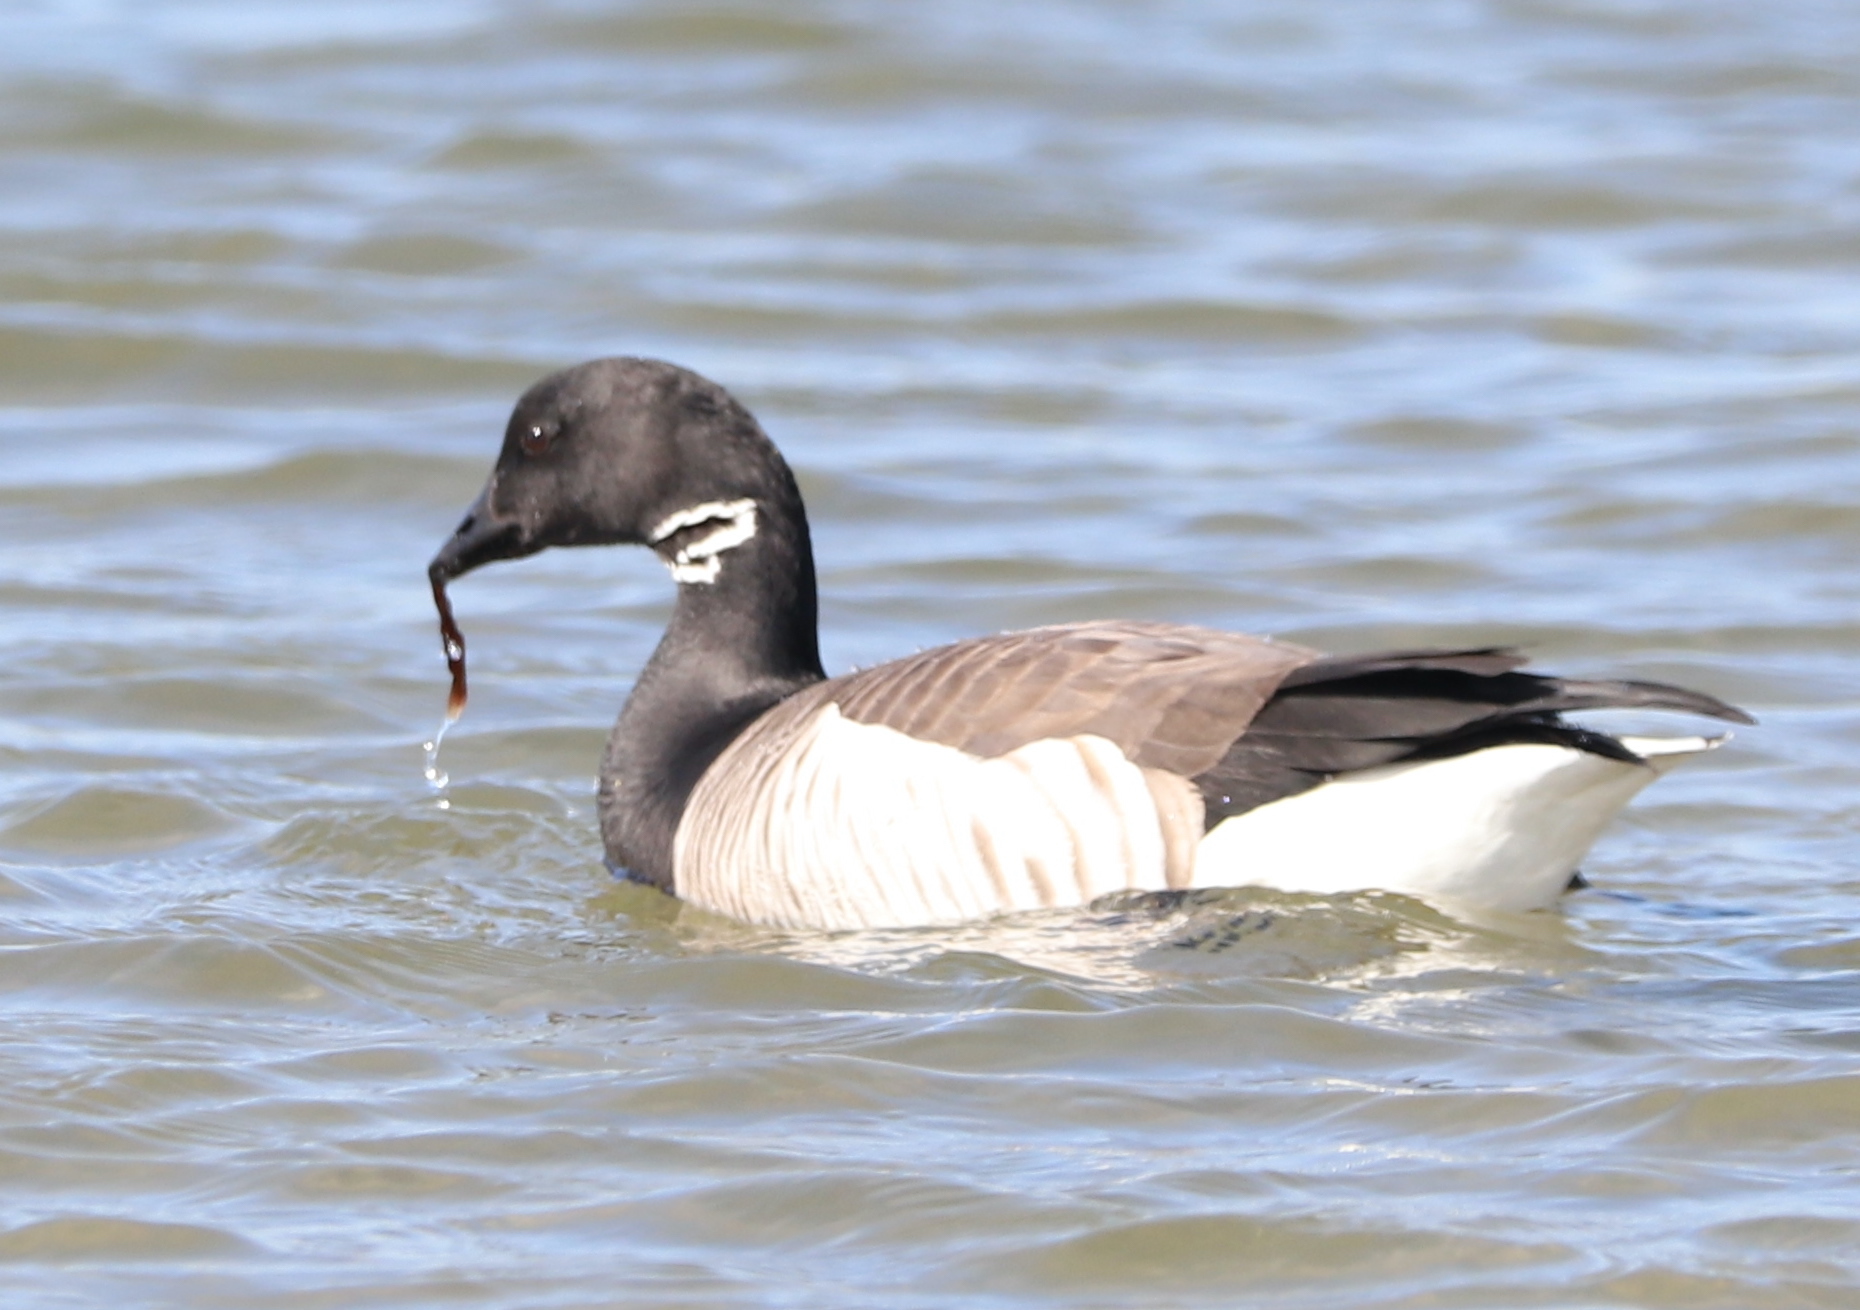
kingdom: Animalia
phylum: Chordata
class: Aves
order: Anseriformes
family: Anatidae
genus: Branta
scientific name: Branta bernicla
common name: Brant goose
